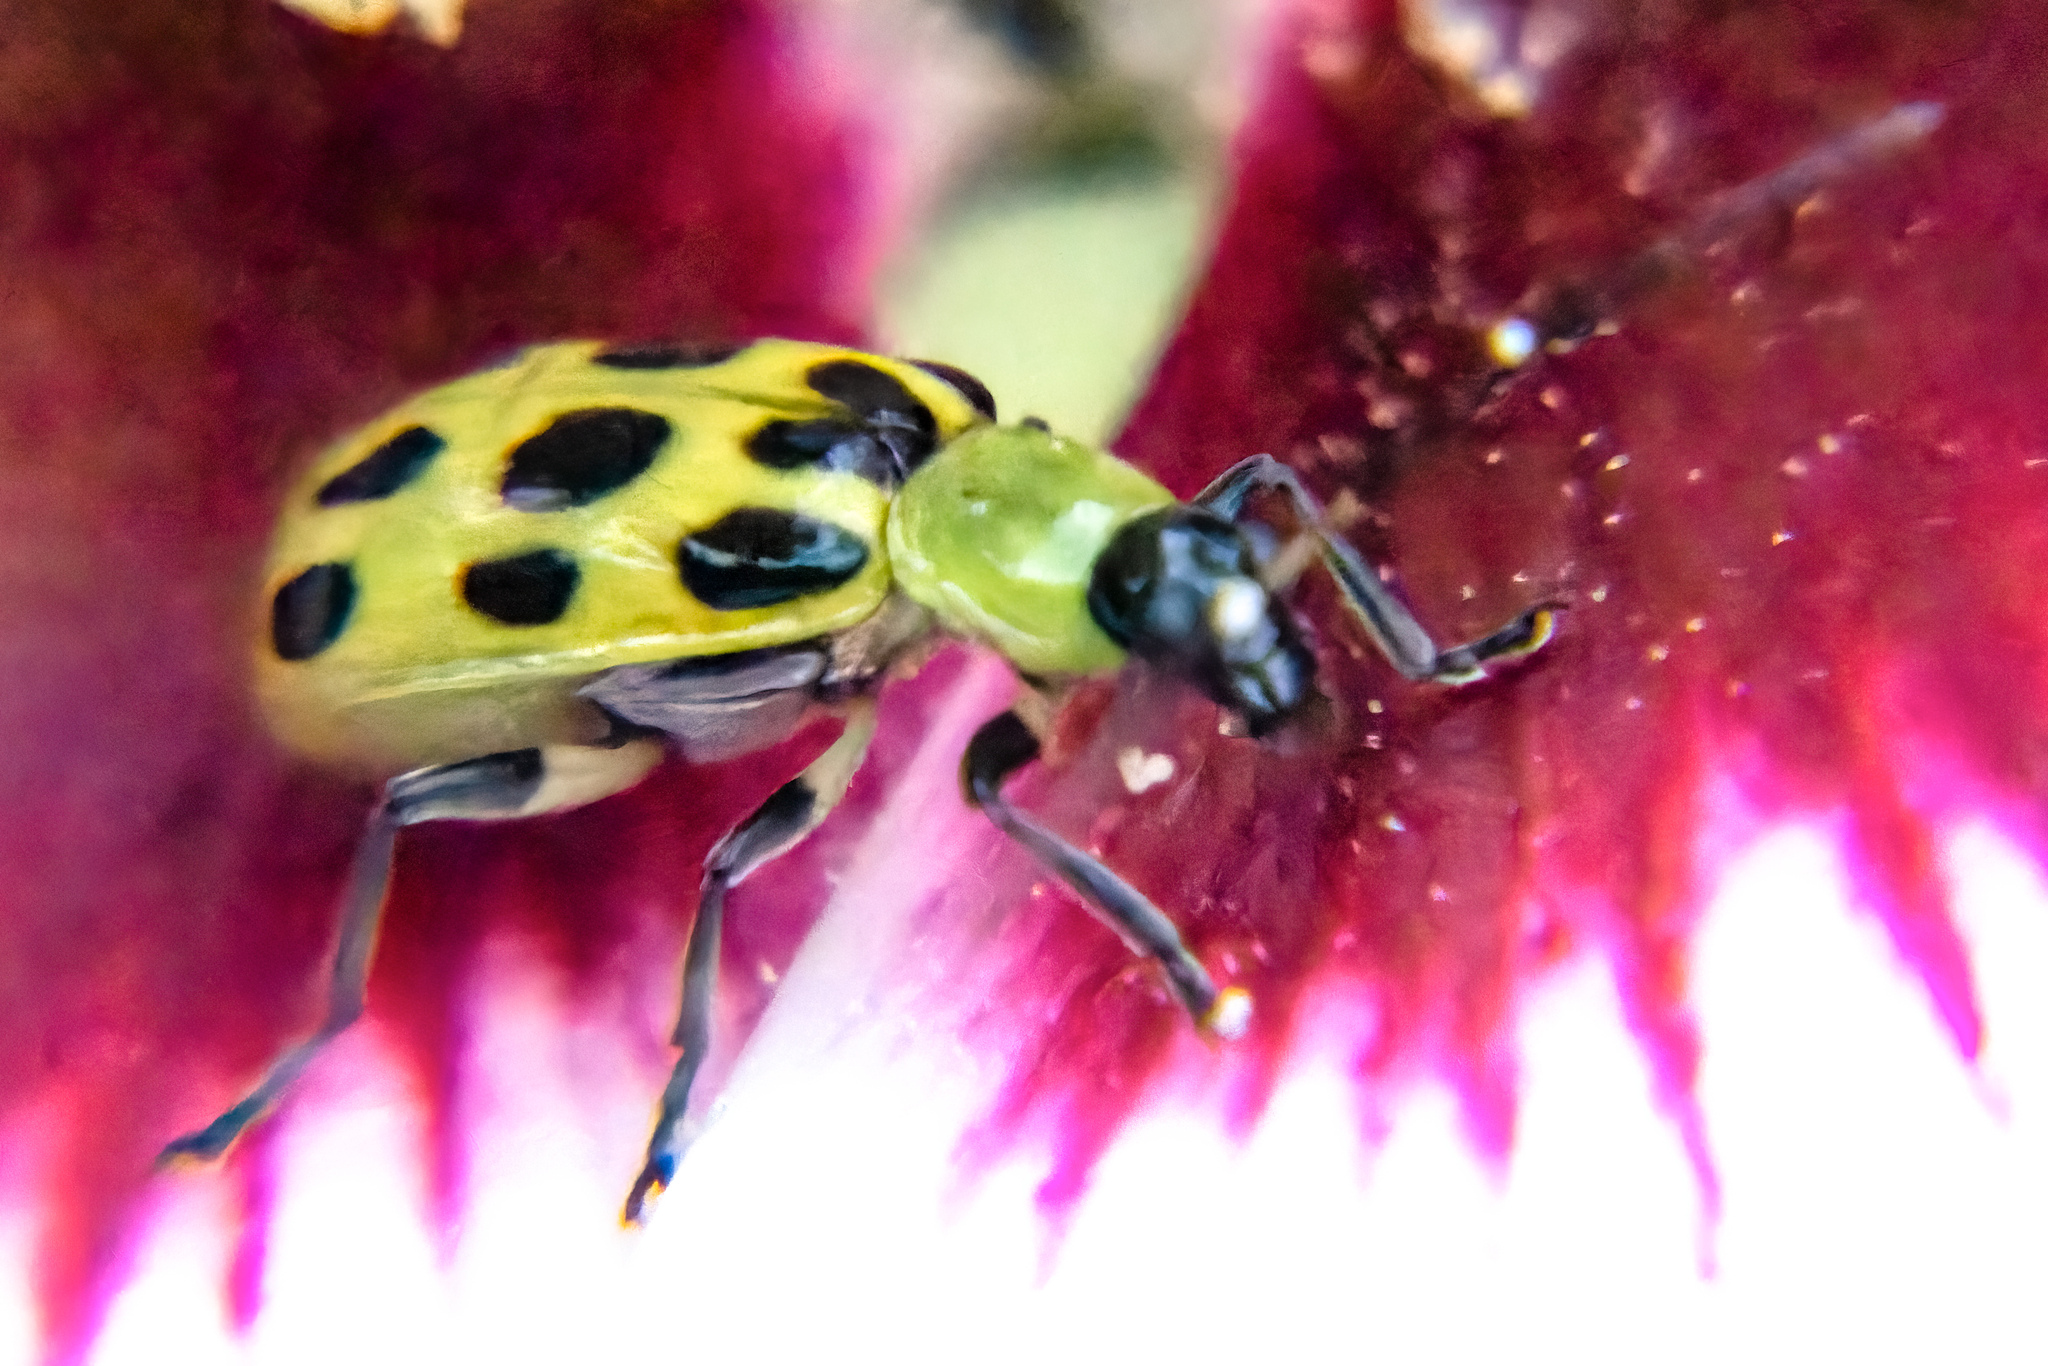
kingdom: Animalia
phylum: Arthropoda
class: Insecta
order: Coleoptera
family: Chrysomelidae
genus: Diabrotica
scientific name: Diabrotica undecimpunctata
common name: Spotted cucumber beetle
